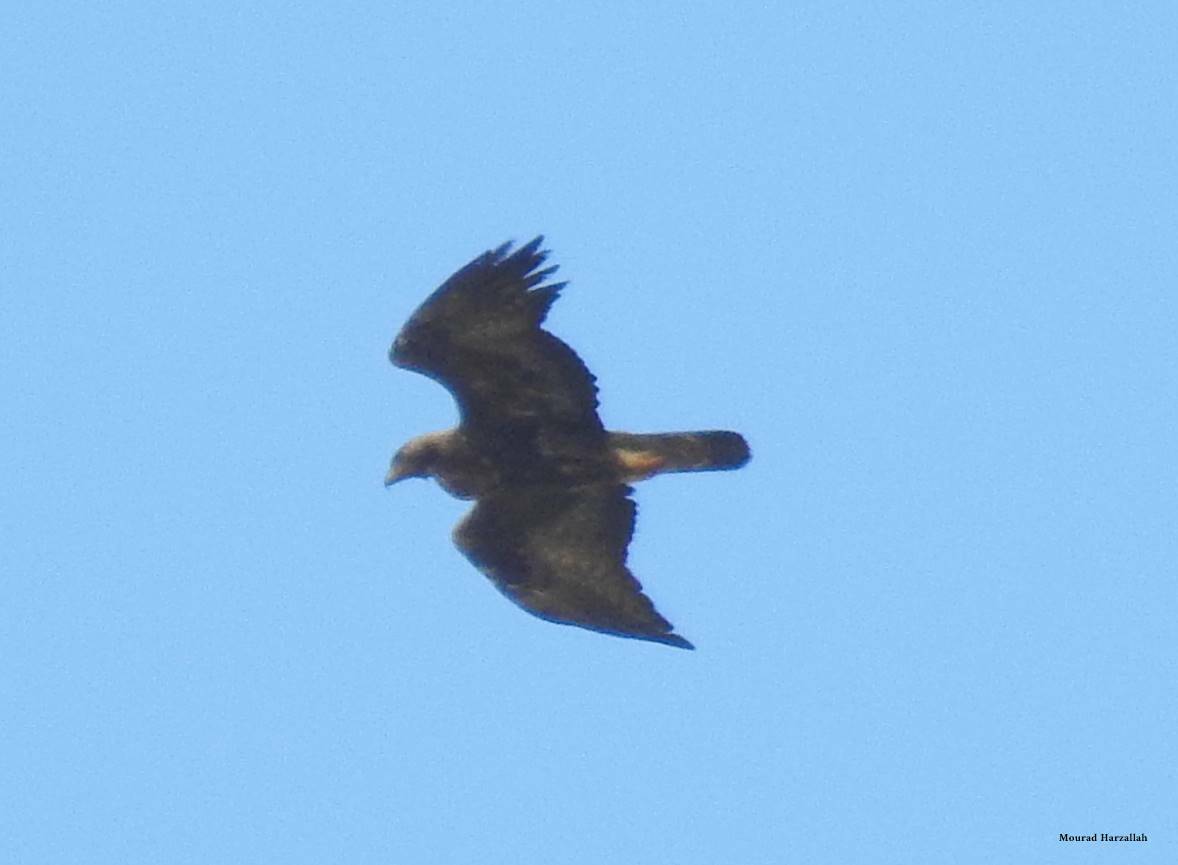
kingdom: Animalia
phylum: Chordata
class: Aves
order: Accipitriformes
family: Accipitridae
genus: Aquila
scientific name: Aquila chrysaetos
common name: Golden eagle
